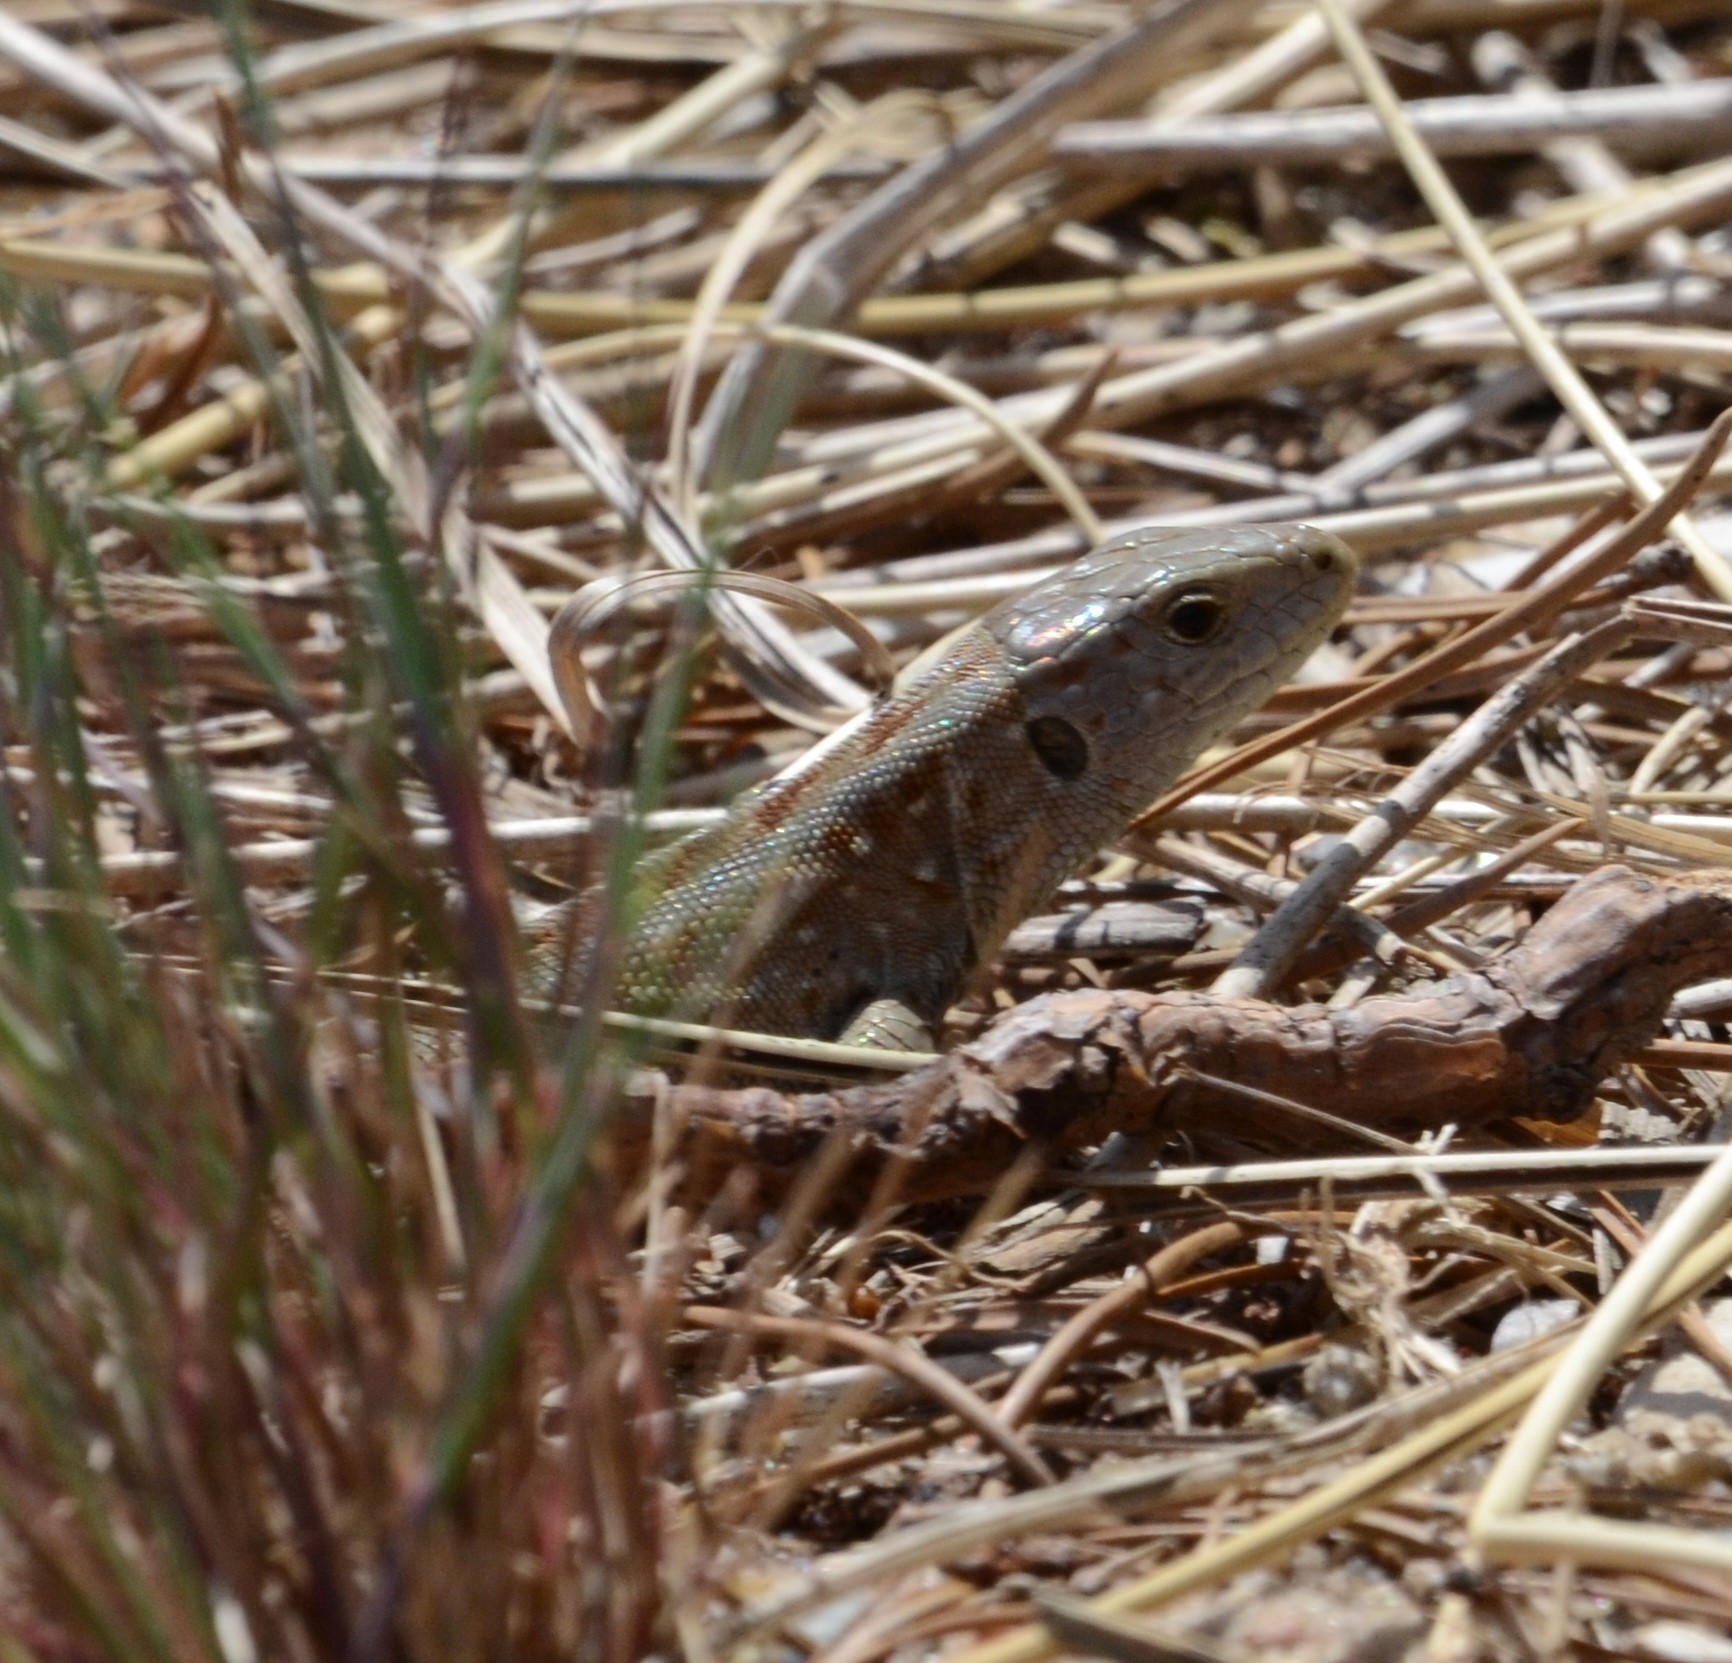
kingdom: Animalia
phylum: Chordata
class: Squamata
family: Lacertidae
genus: Lacerta
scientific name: Lacerta agilis
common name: Sand lizard
